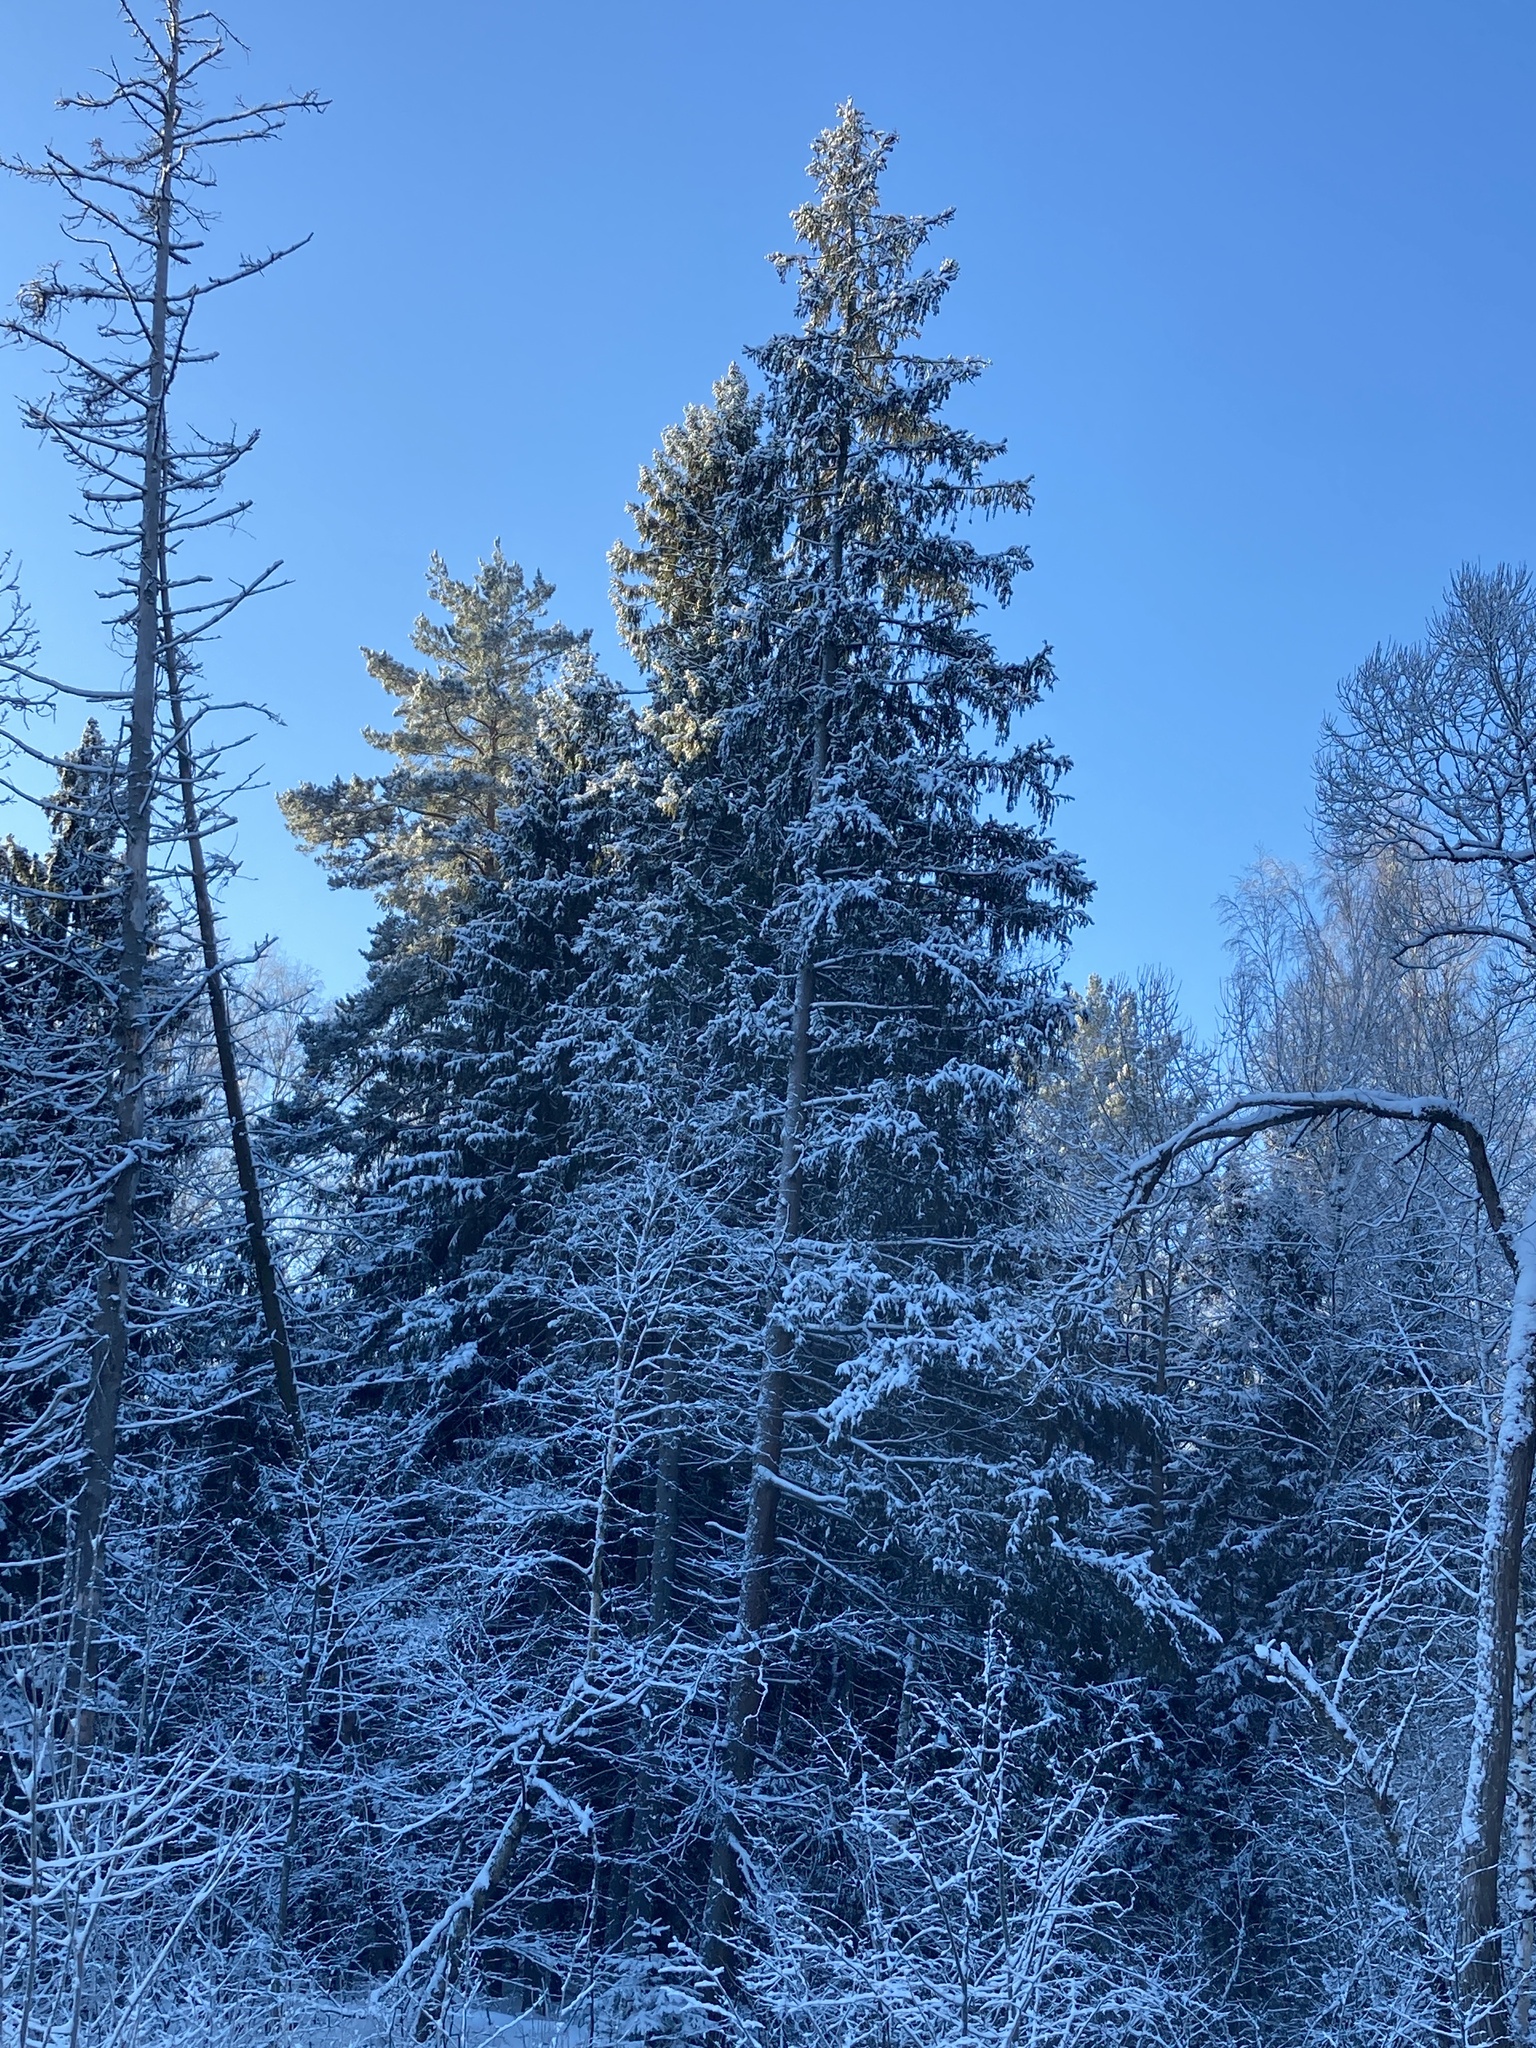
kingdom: Plantae
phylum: Tracheophyta
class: Pinopsida
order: Pinales
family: Pinaceae
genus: Picea
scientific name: Picea abies
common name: Norway spruce
